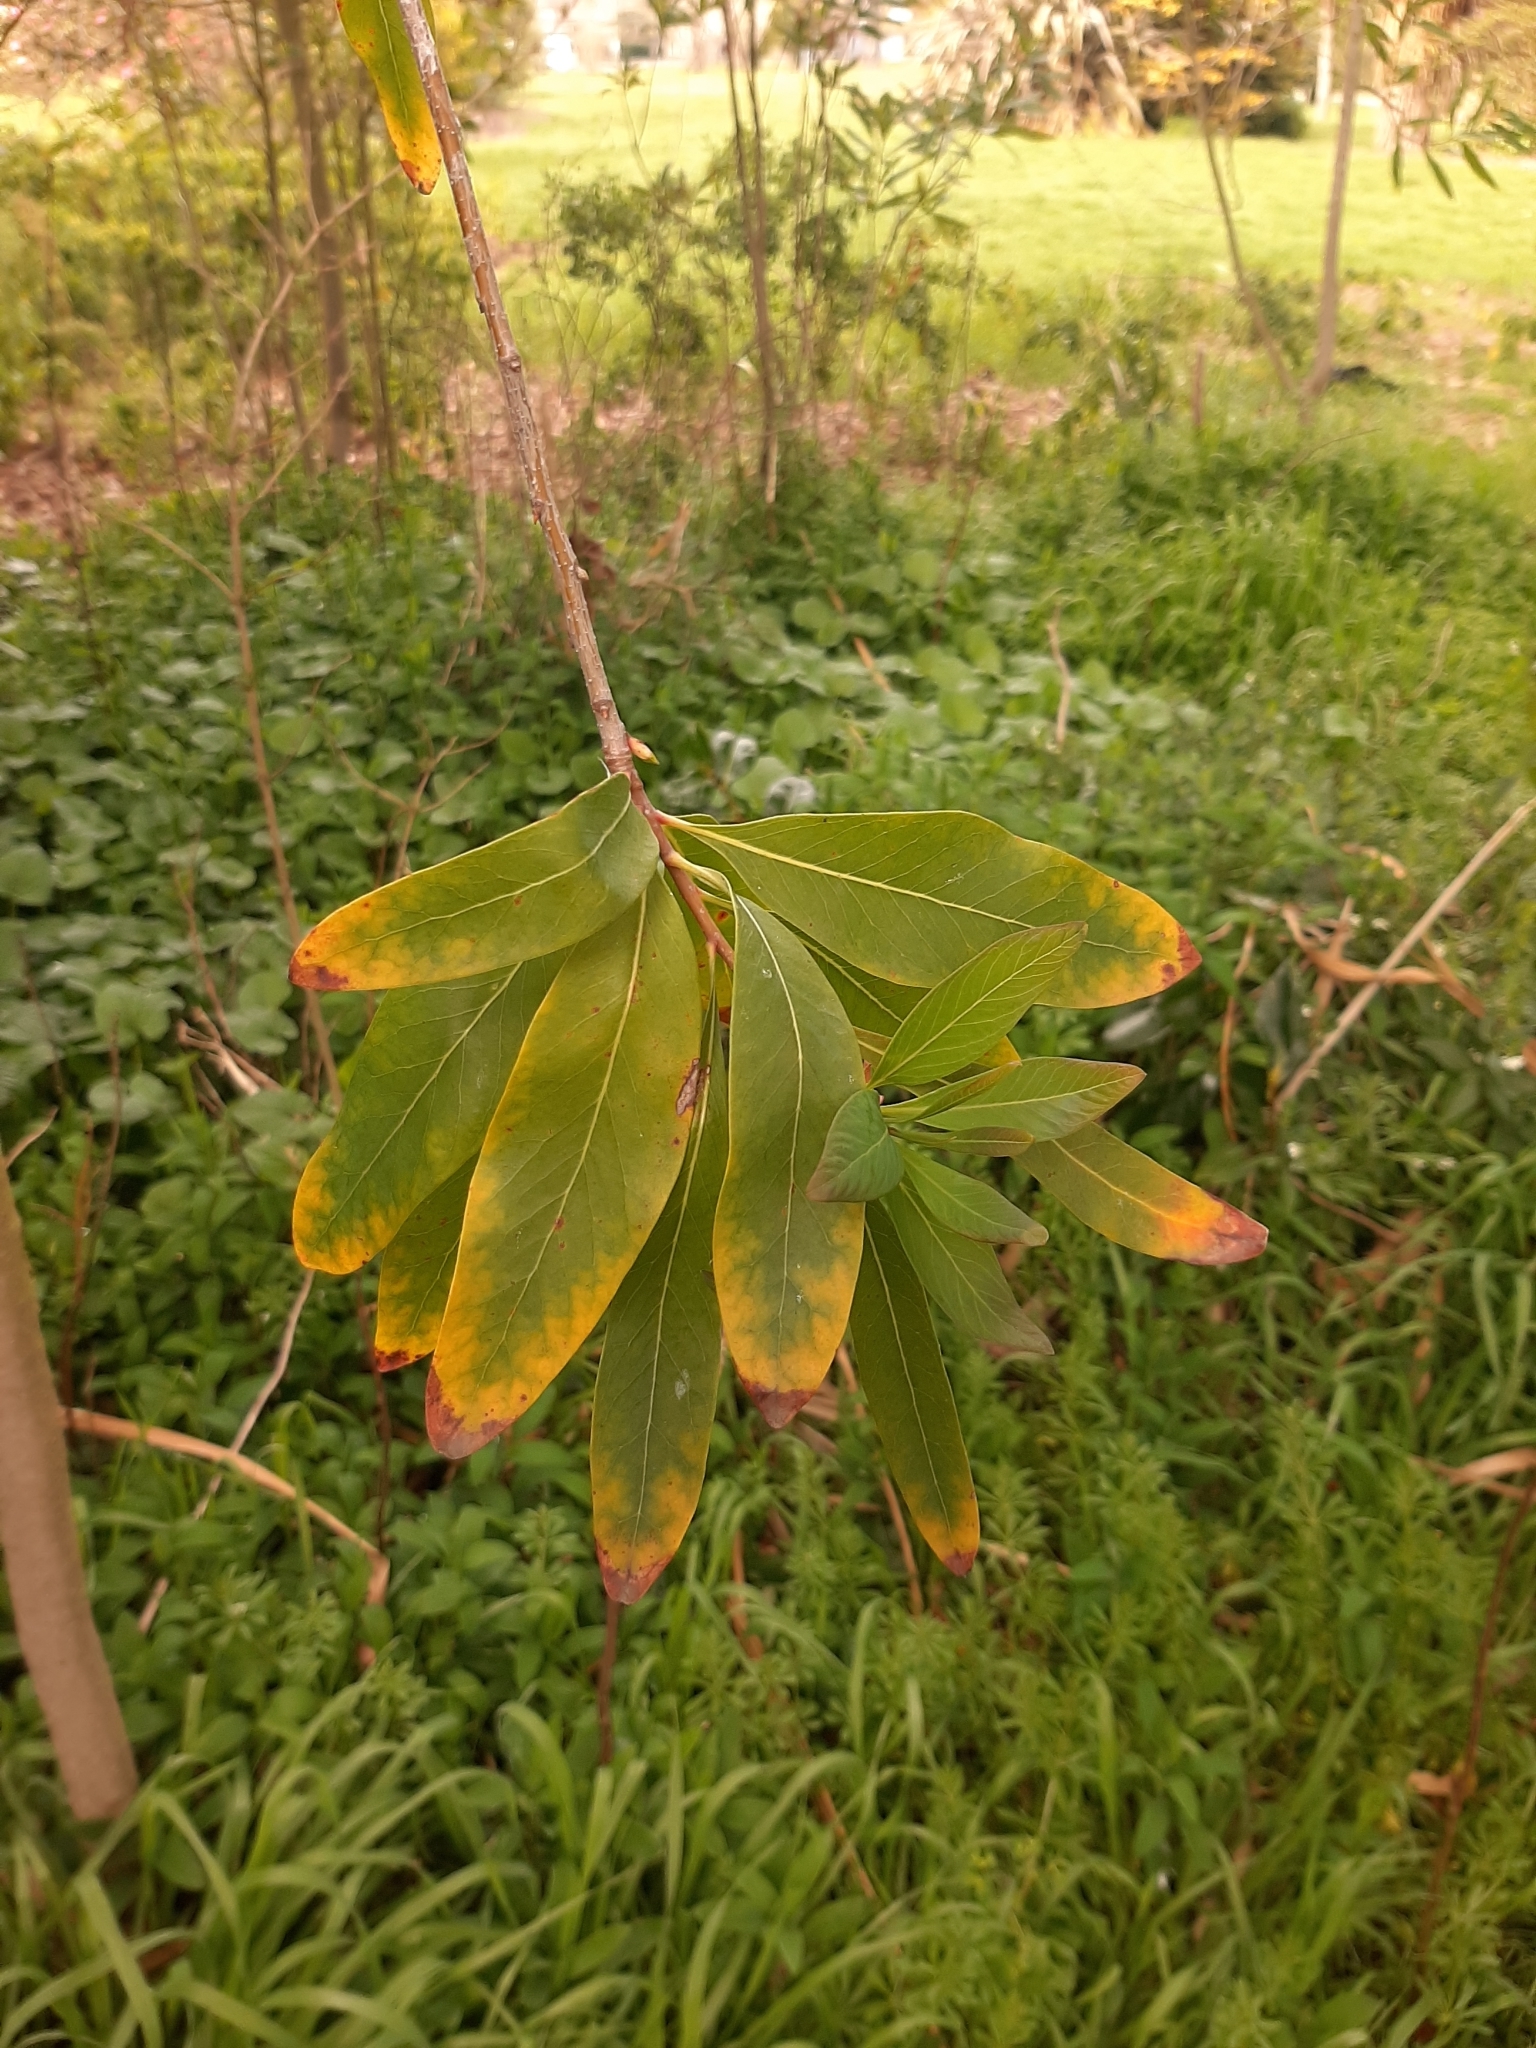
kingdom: Plantae
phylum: Tracheophyta
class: Magnoliopsida
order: Proteales
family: Proteaceae
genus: Embothrium
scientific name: Embothrium coccineum
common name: Chilean firebush
